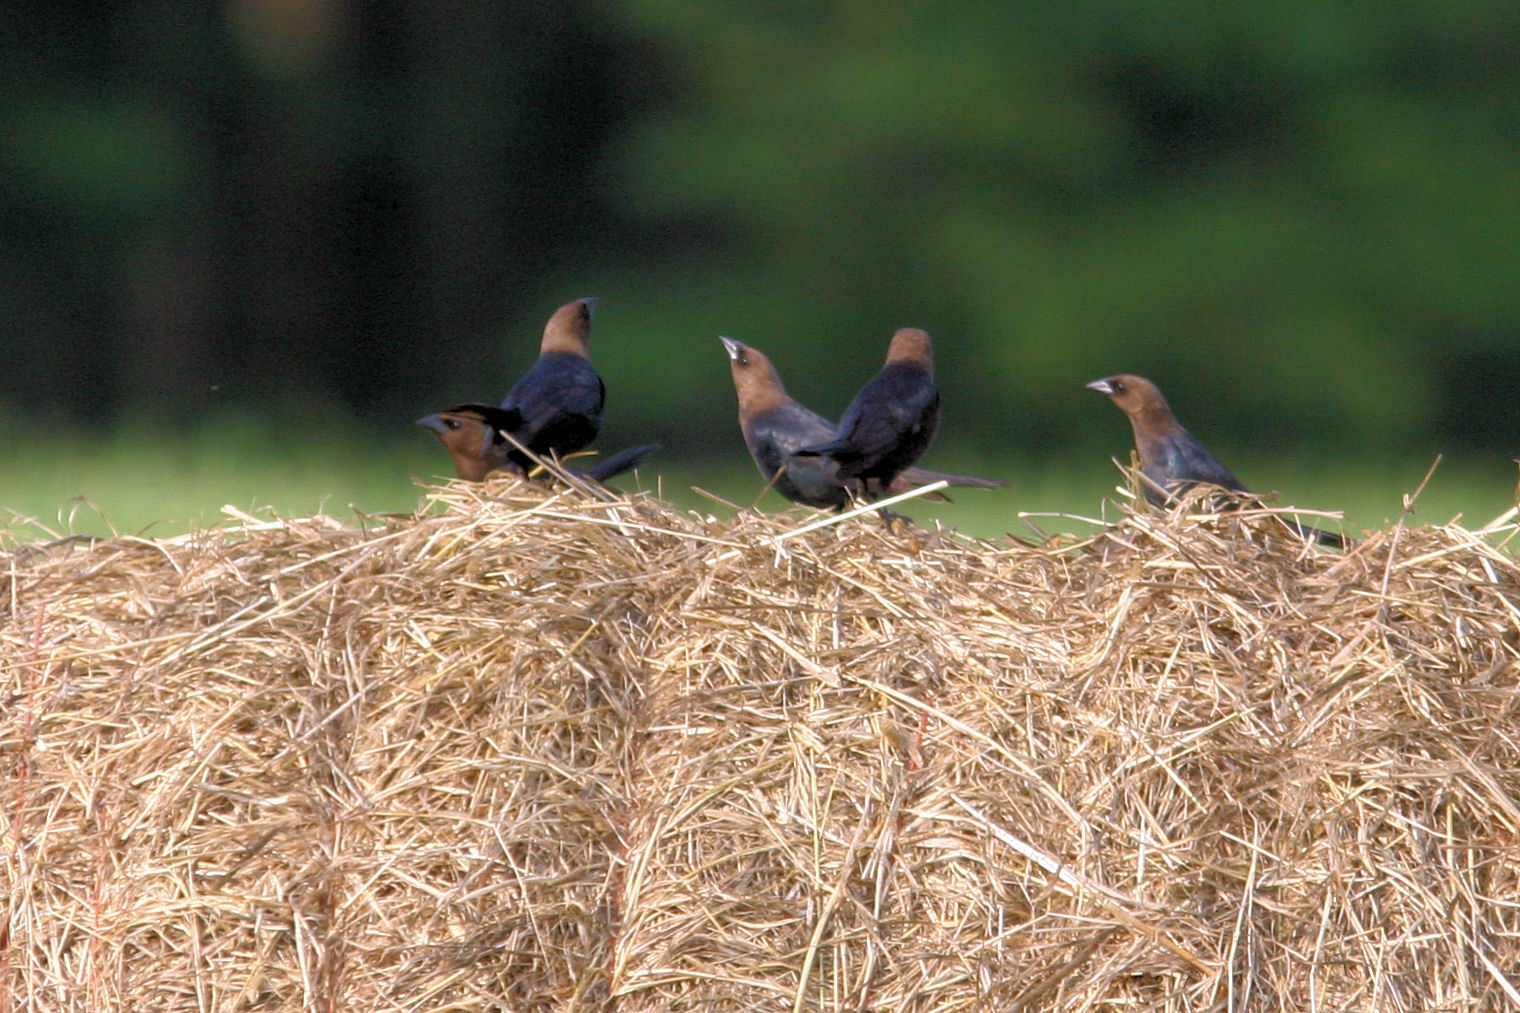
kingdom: Animalia
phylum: Chordata
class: Aves
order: Passeriformes
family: Icteridae
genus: Molothrus
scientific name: Molothrus ater
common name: Brown-headed cowbird
